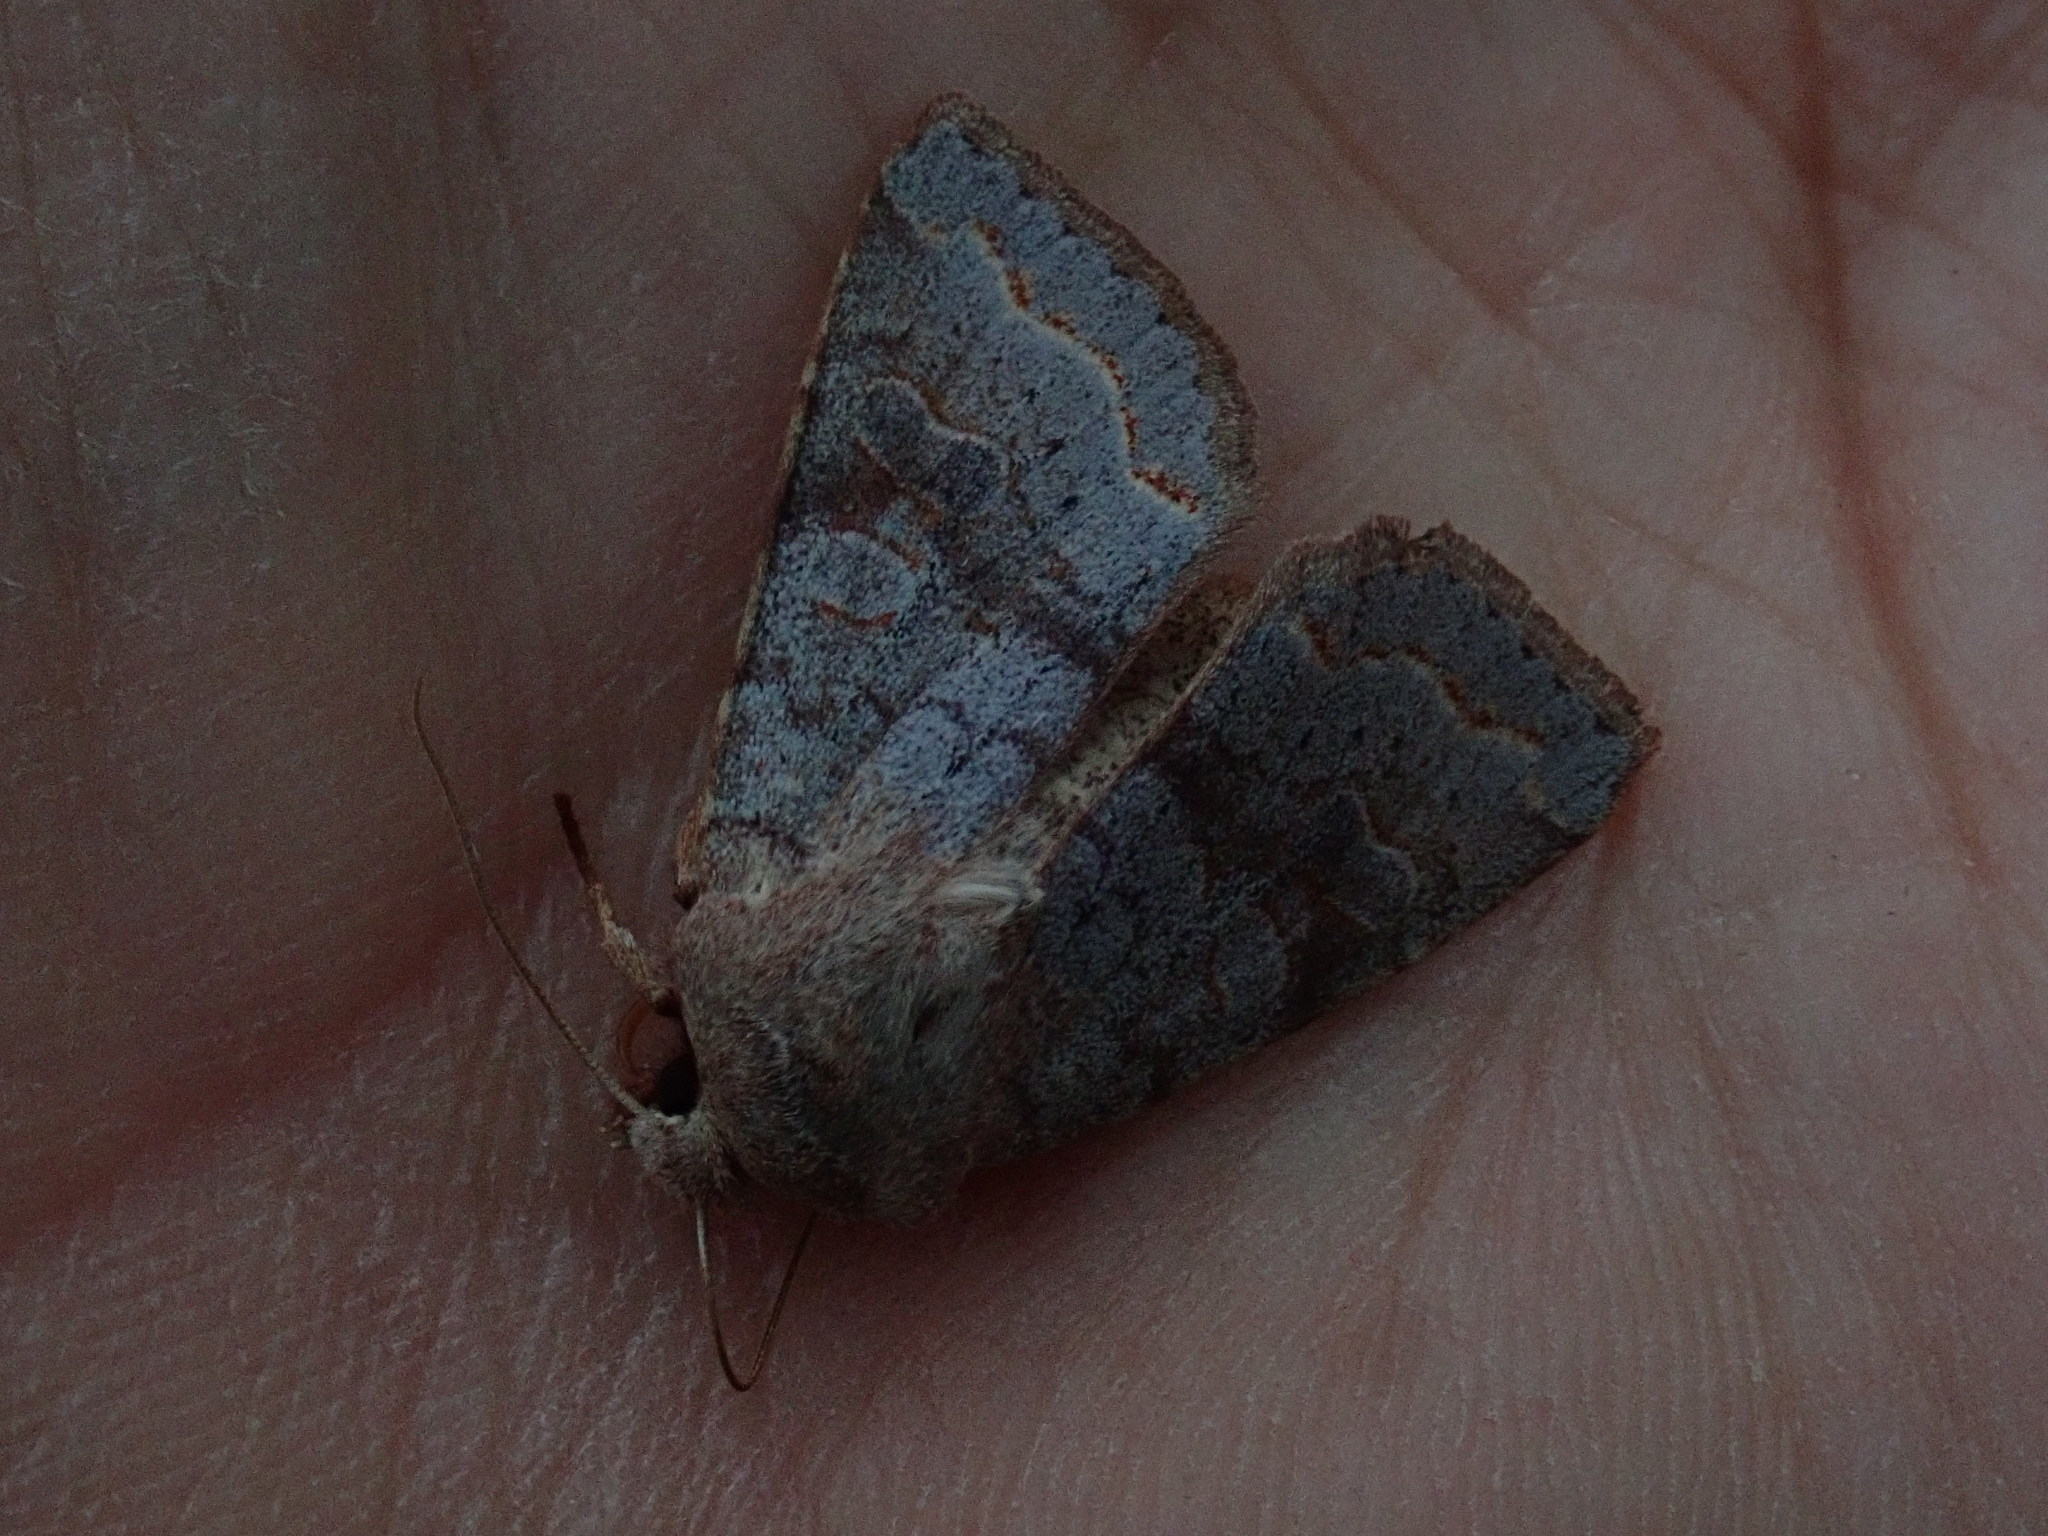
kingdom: Animalia
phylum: Arthropoda
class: Insecta
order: Lepidoptera
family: Noctuidae
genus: Orthosia
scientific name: Orthosia revicta
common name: Rusty whitesided caterpillar
